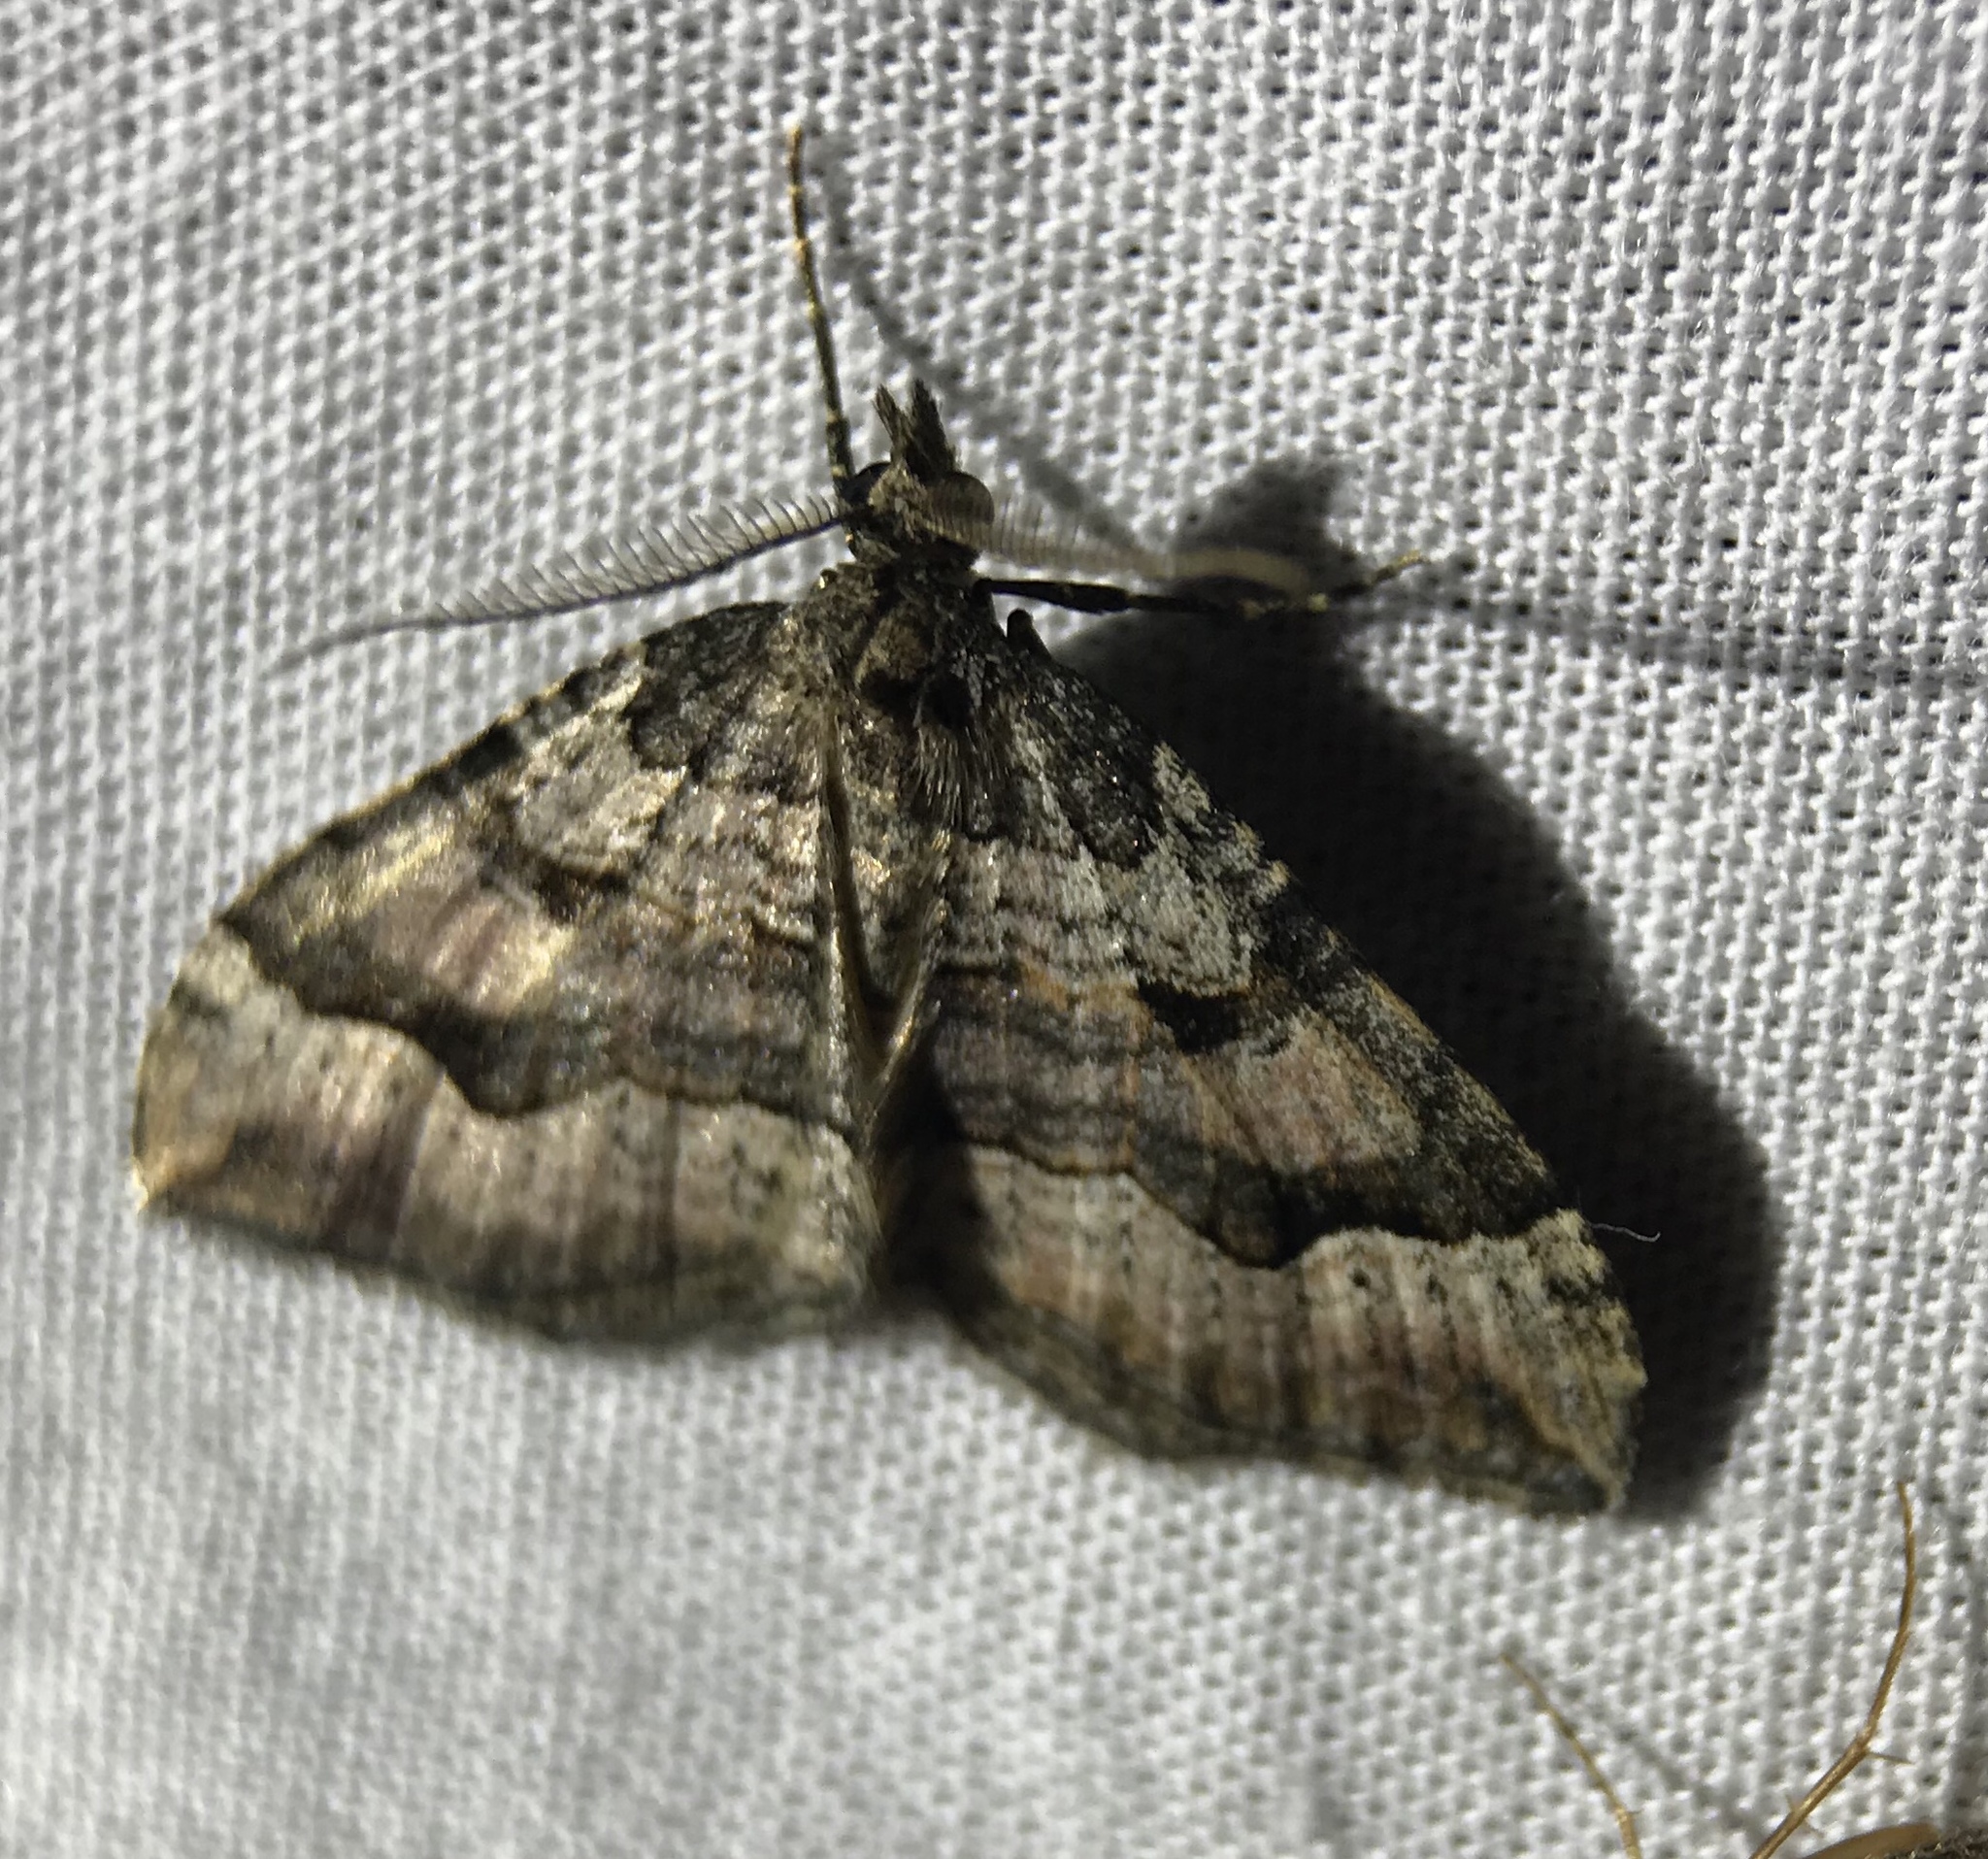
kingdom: Animalia
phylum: Arthropoda
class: Insecta
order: Lepidoptera
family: Geometridae
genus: Epyaxa
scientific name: Epyaxa rosearia
